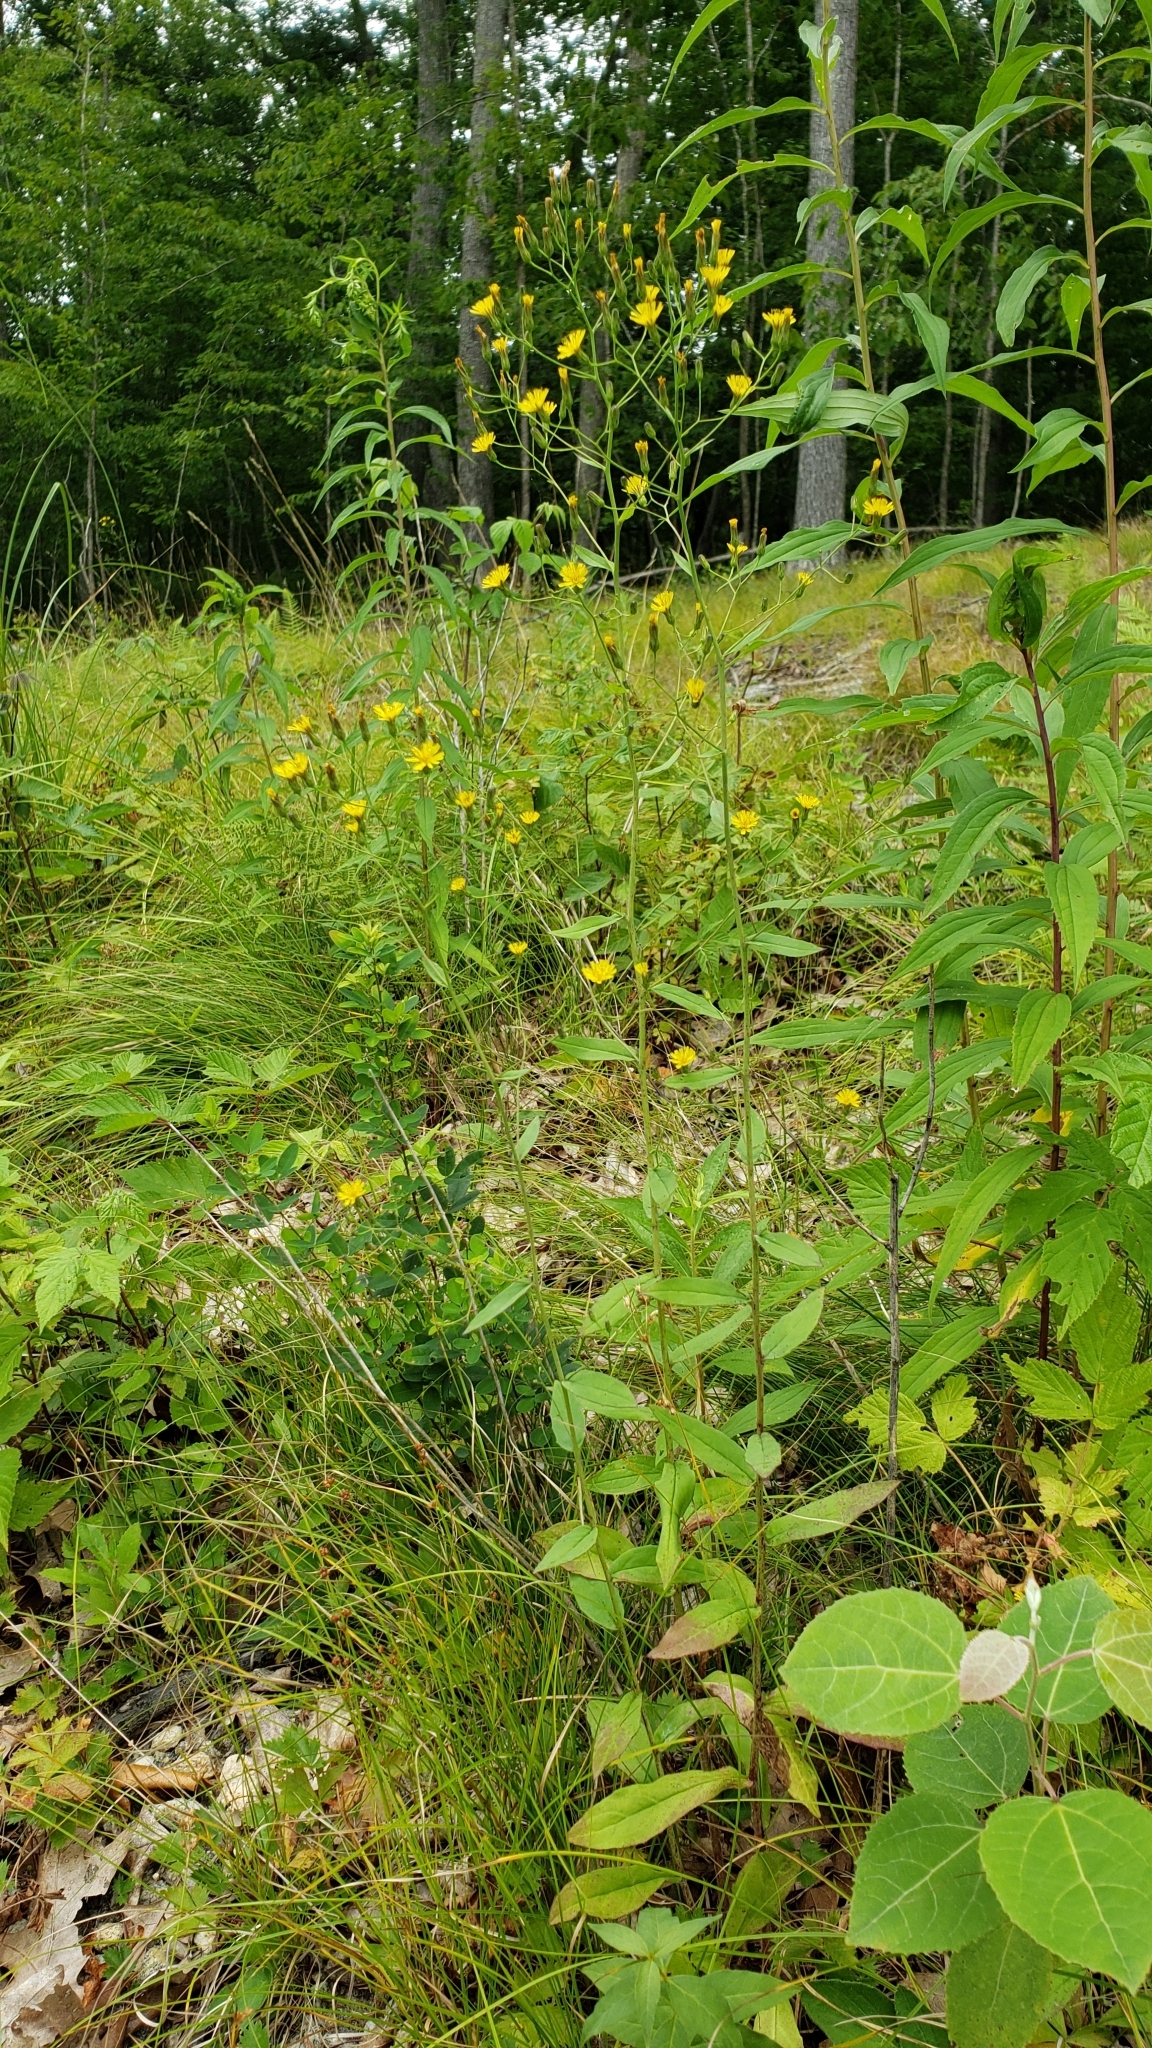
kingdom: Plantae
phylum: Tracheophyta
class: Magnoliopsida
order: Asterales
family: Asteraceae
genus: Hieracium
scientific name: Hieracium paniculatum
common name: Allegheny hawkweed
